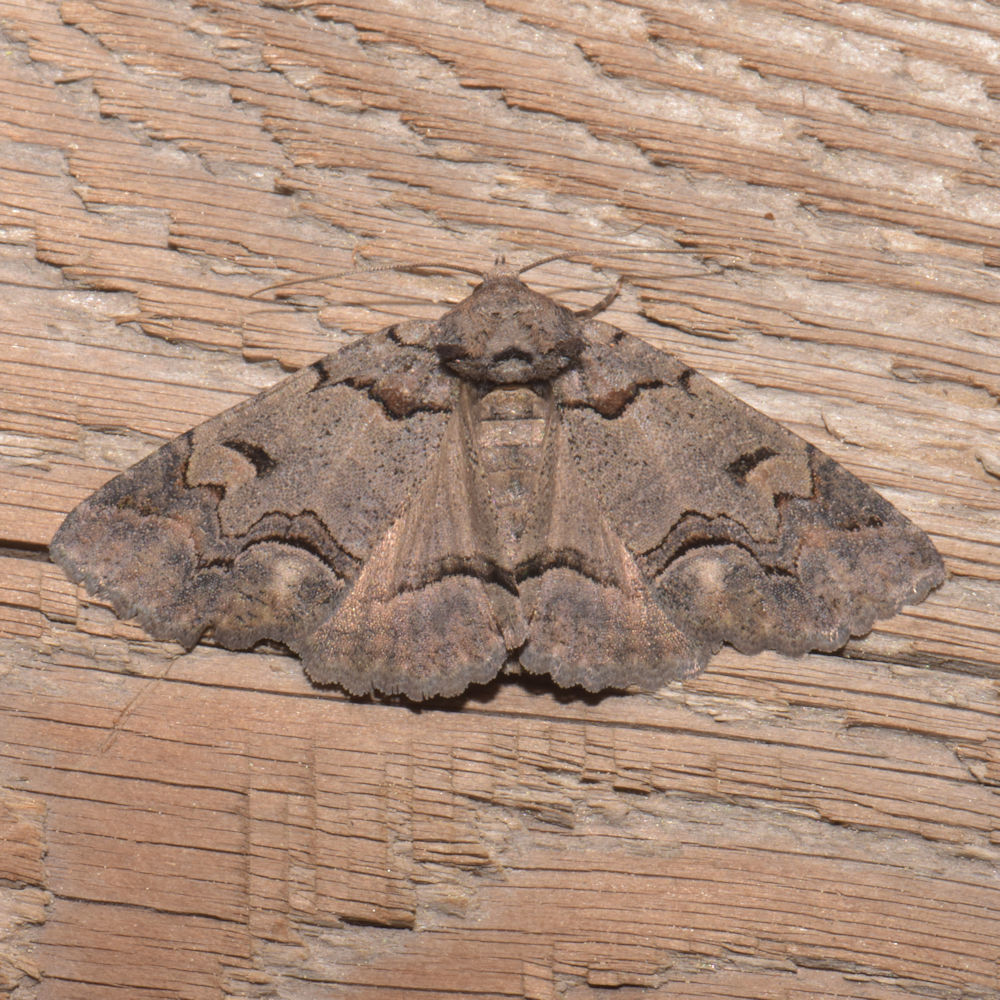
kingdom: Animalia
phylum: Arthropoda
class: Insecta
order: Lepidoptera
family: Erebidae
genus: Zale
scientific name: Zale duplicata
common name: Pine false looper moth
